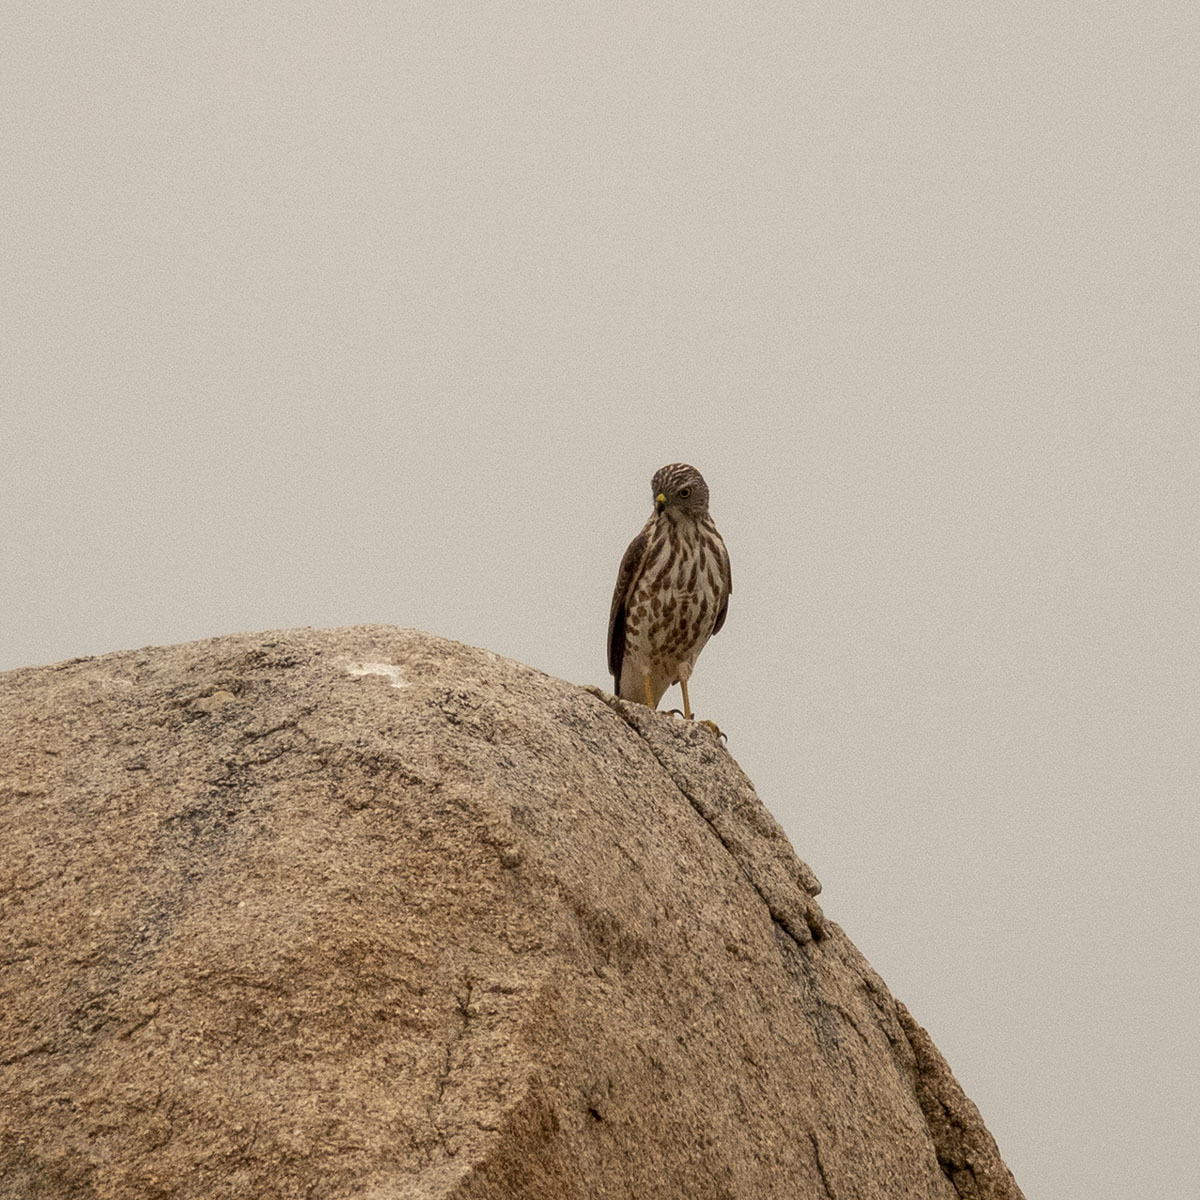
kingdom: Animalia
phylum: Chordata
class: Aves
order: Accipitriformes
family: Accipitridae
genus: Accipiter
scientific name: Accipiter badius
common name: Shikra
